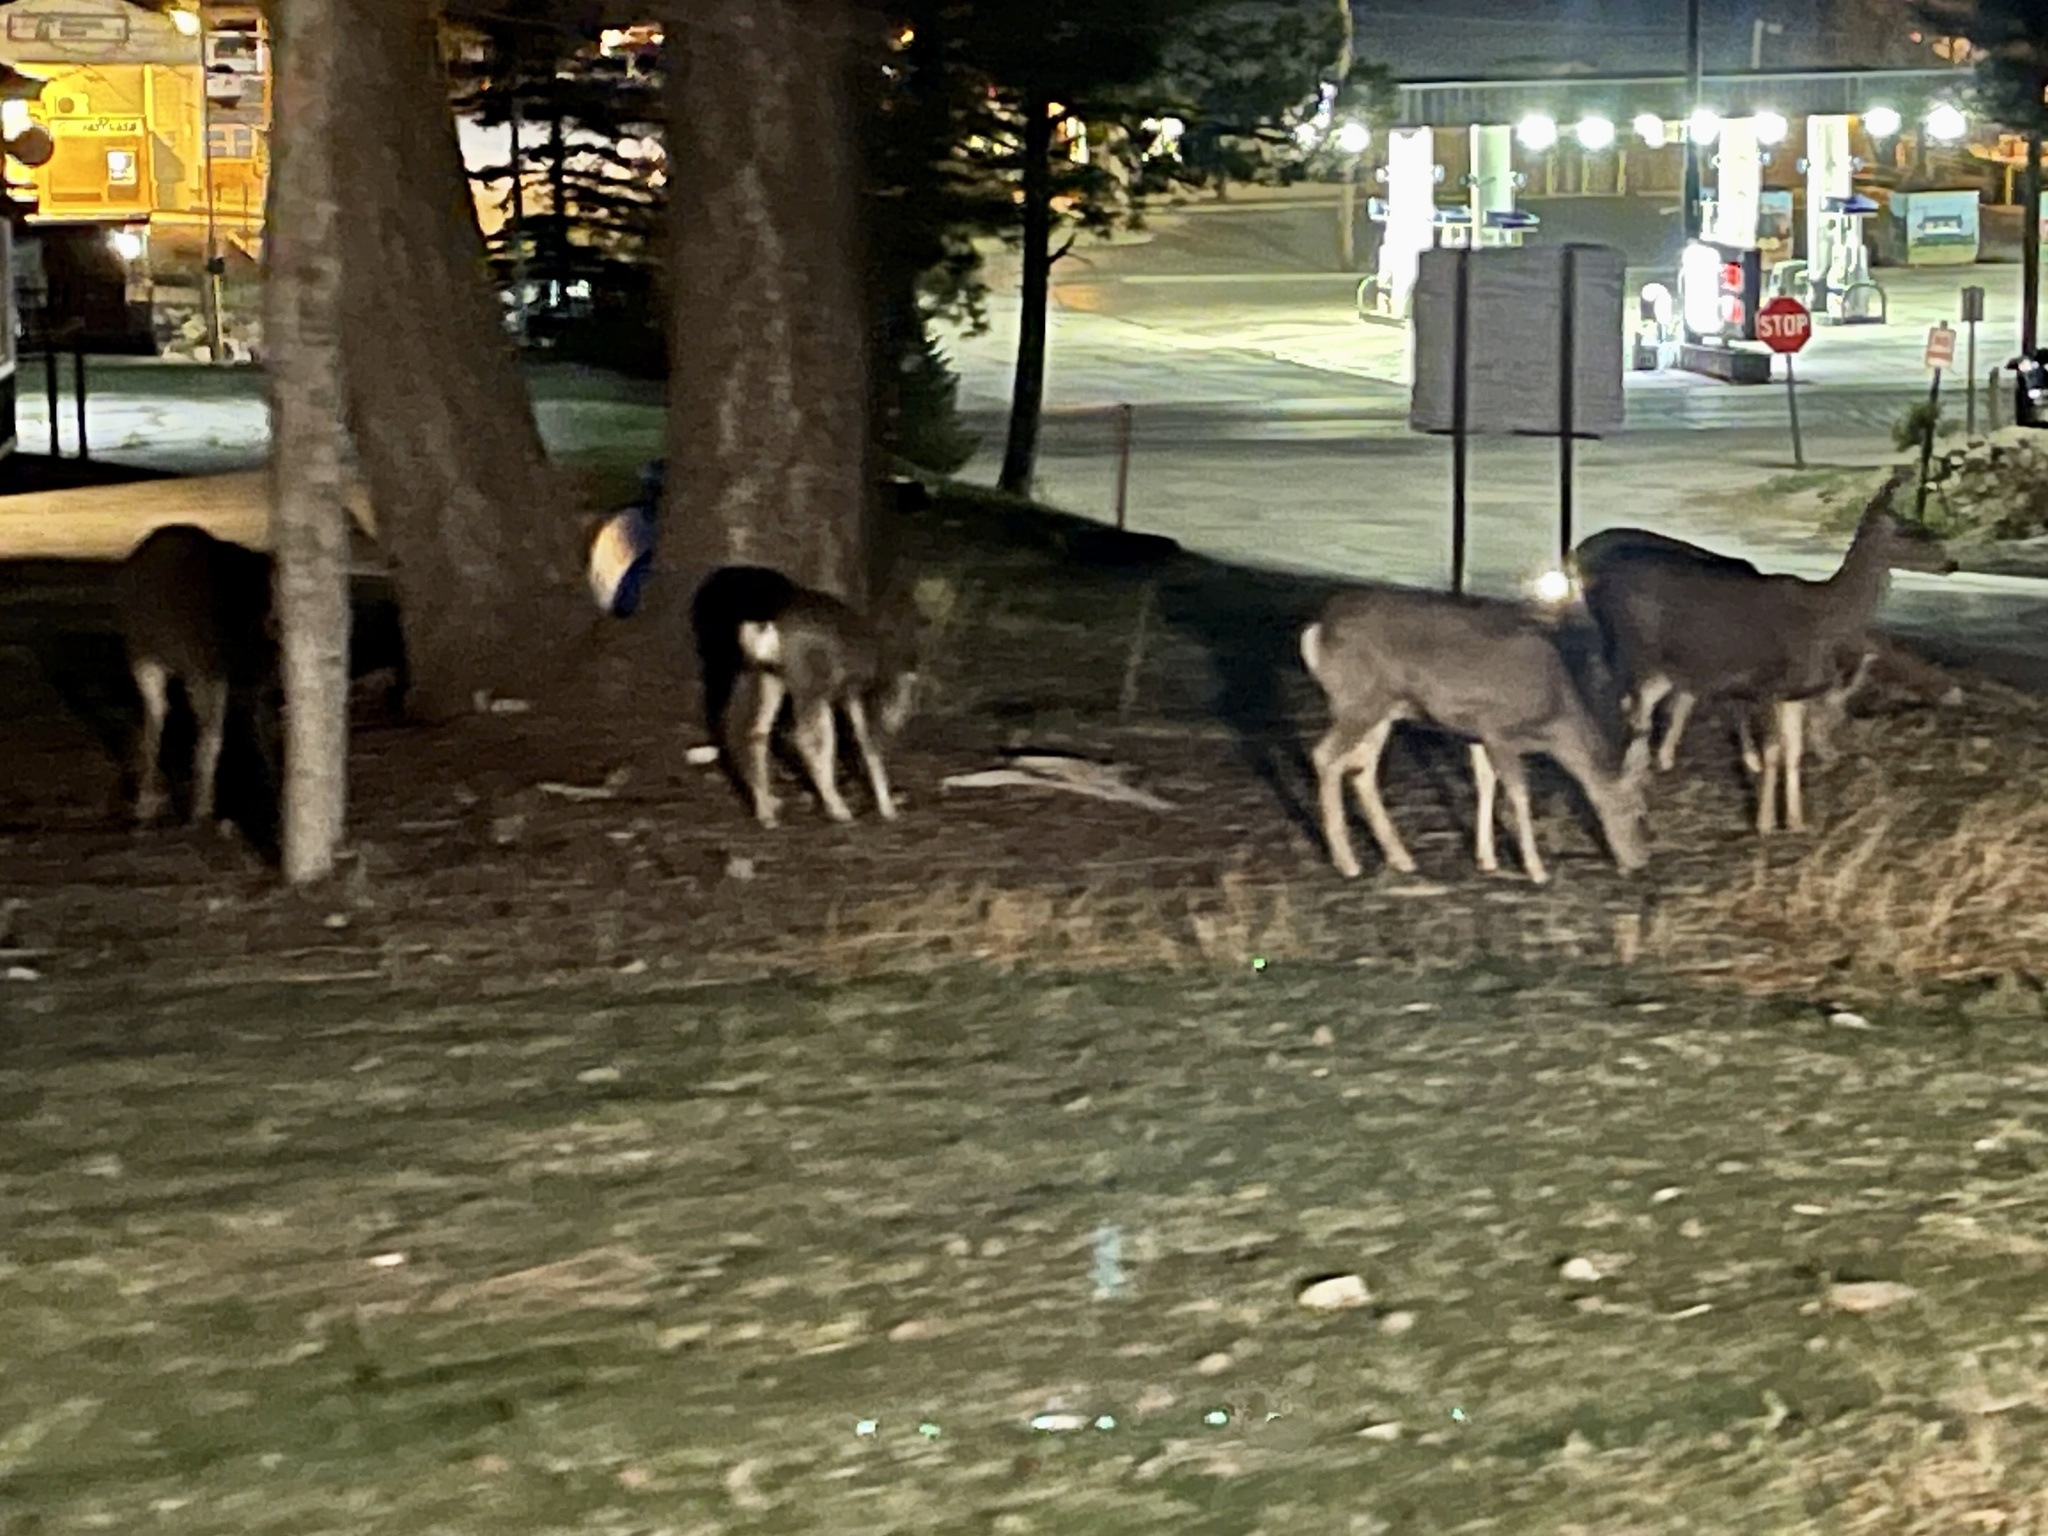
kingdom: Animalia
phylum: Chordata
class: Mammalia
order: Artiodactyla
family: Cervidae
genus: Odocoileus
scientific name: Odocoileus hemionus
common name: Mule deer
